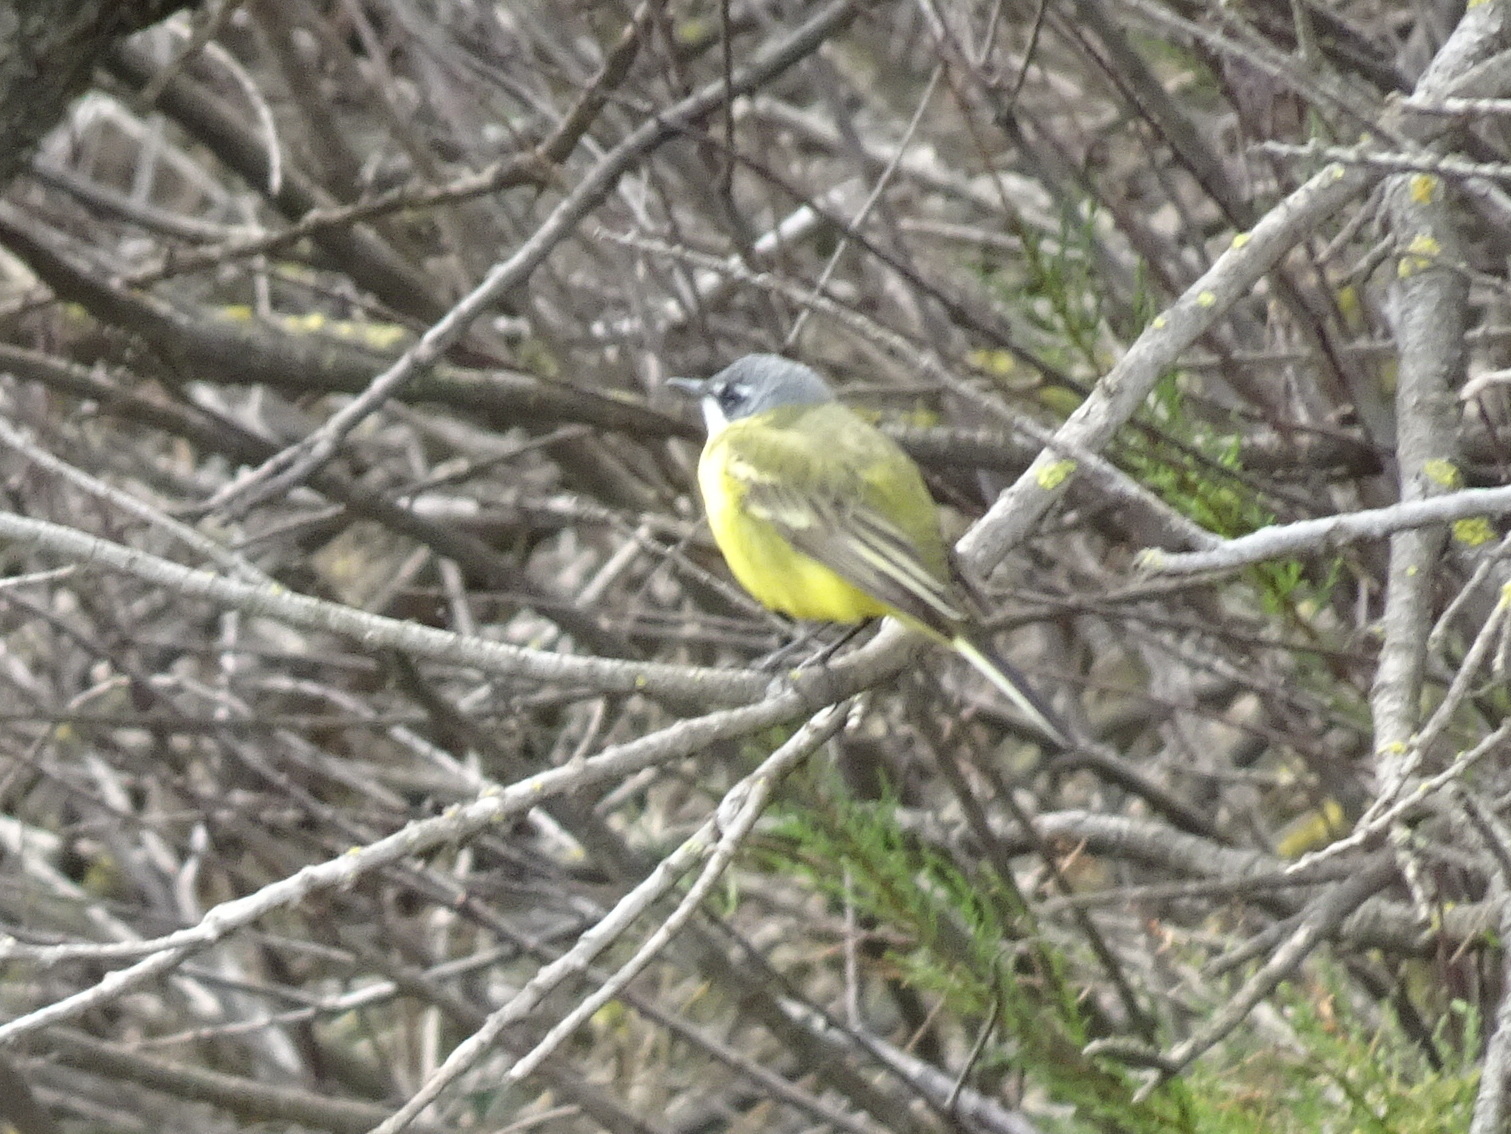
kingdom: Animalia
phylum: Chordata
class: Aves
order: Passeriformes
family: Motacillidae
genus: Motacilla
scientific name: Motacilla flava
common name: Western yellow wagtail
